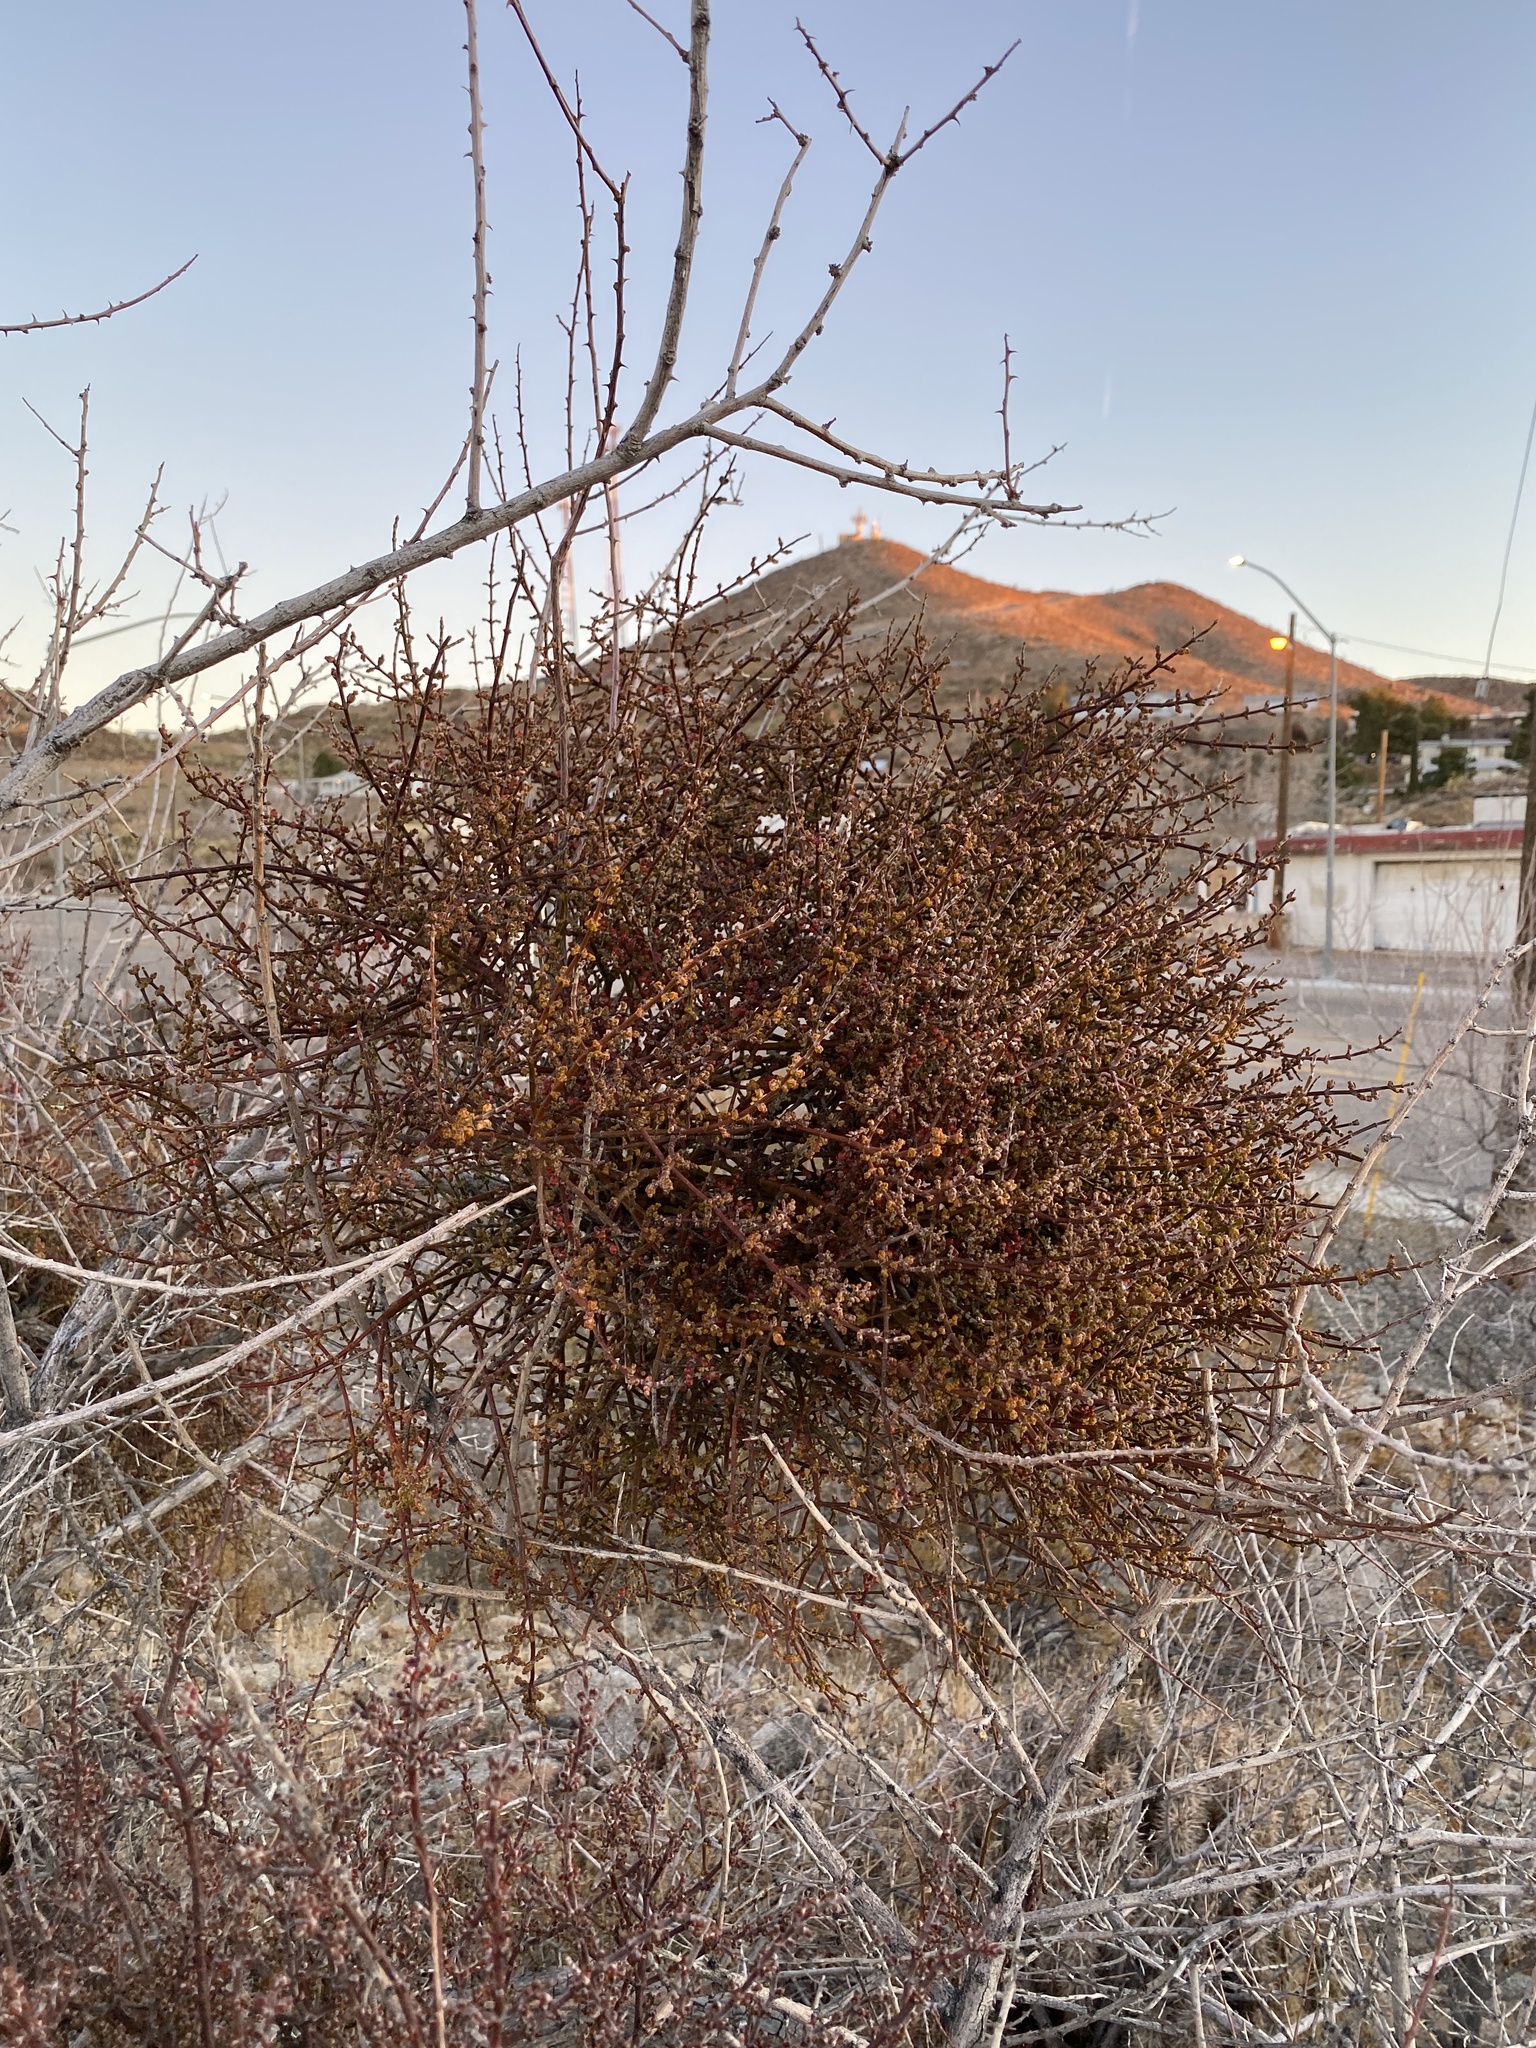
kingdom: Plantae
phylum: Tracheophyta
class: Magnoliopsida
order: Santalales
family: Viscaceae
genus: Phoradendron
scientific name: Phoradendron californicum
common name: Acacia mistletoe
